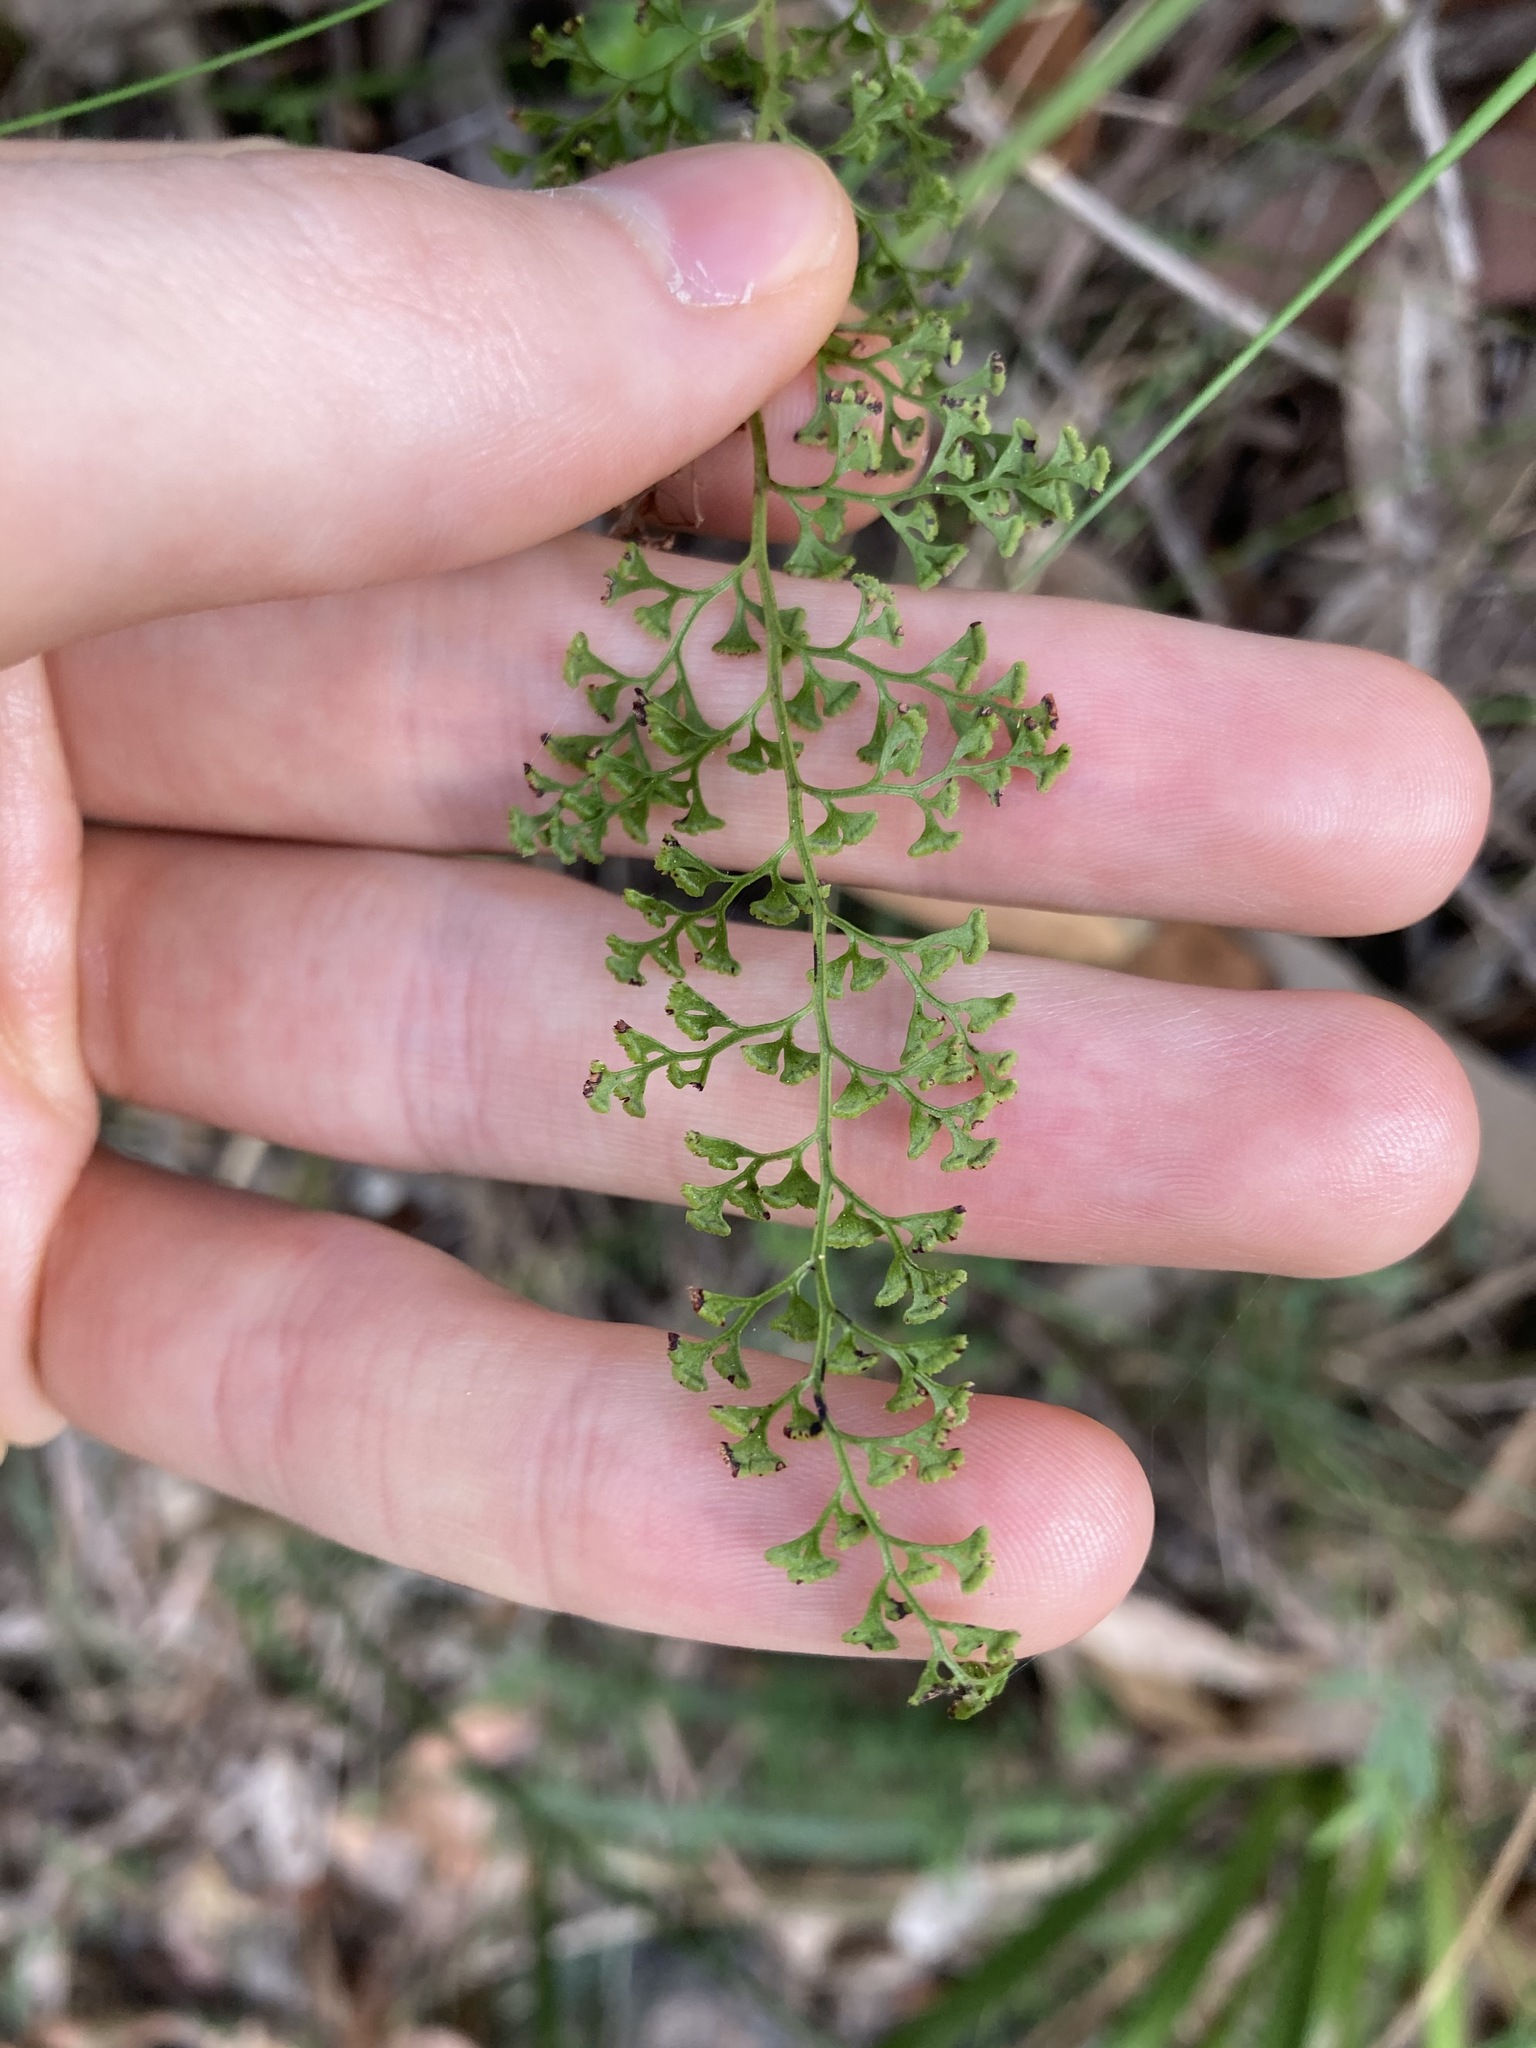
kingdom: Plantae
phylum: Tracheophyta
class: Polypodiopsida
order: Polypodiales
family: Lindsaeaceae
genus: Lindsaea
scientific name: Lindsaea microphylla
